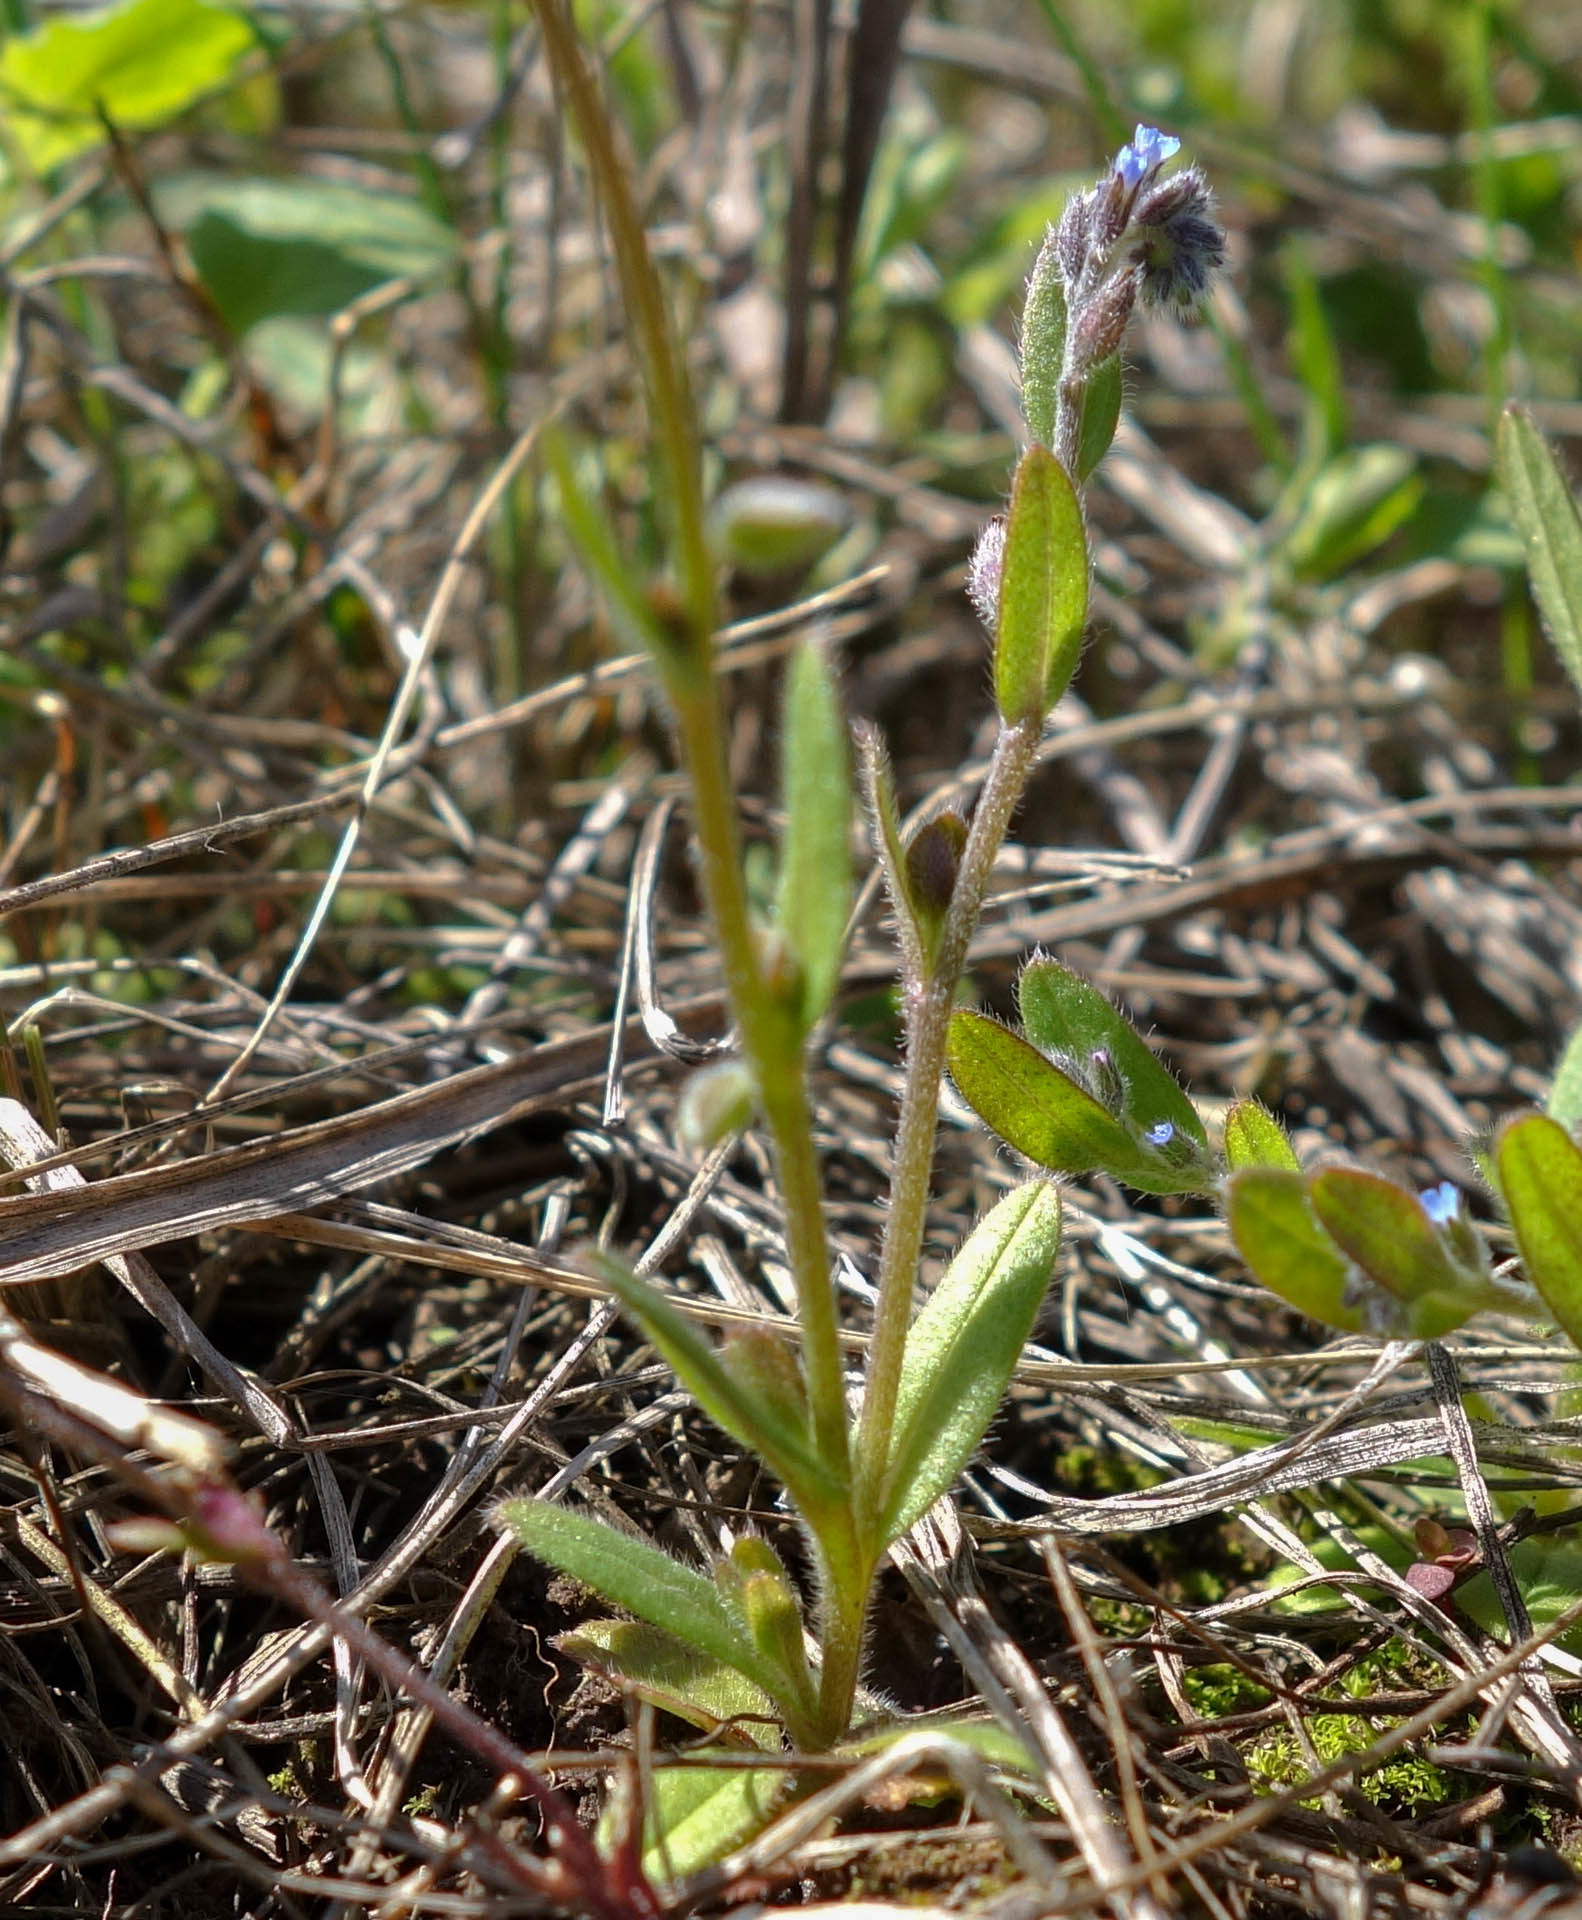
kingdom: Plantae
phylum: Tracheophyta
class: Magnoliopsida
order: Boraginales
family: Boraginaceae
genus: Myosotis
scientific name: Myosotis stricta
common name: Strict forget-me-not
